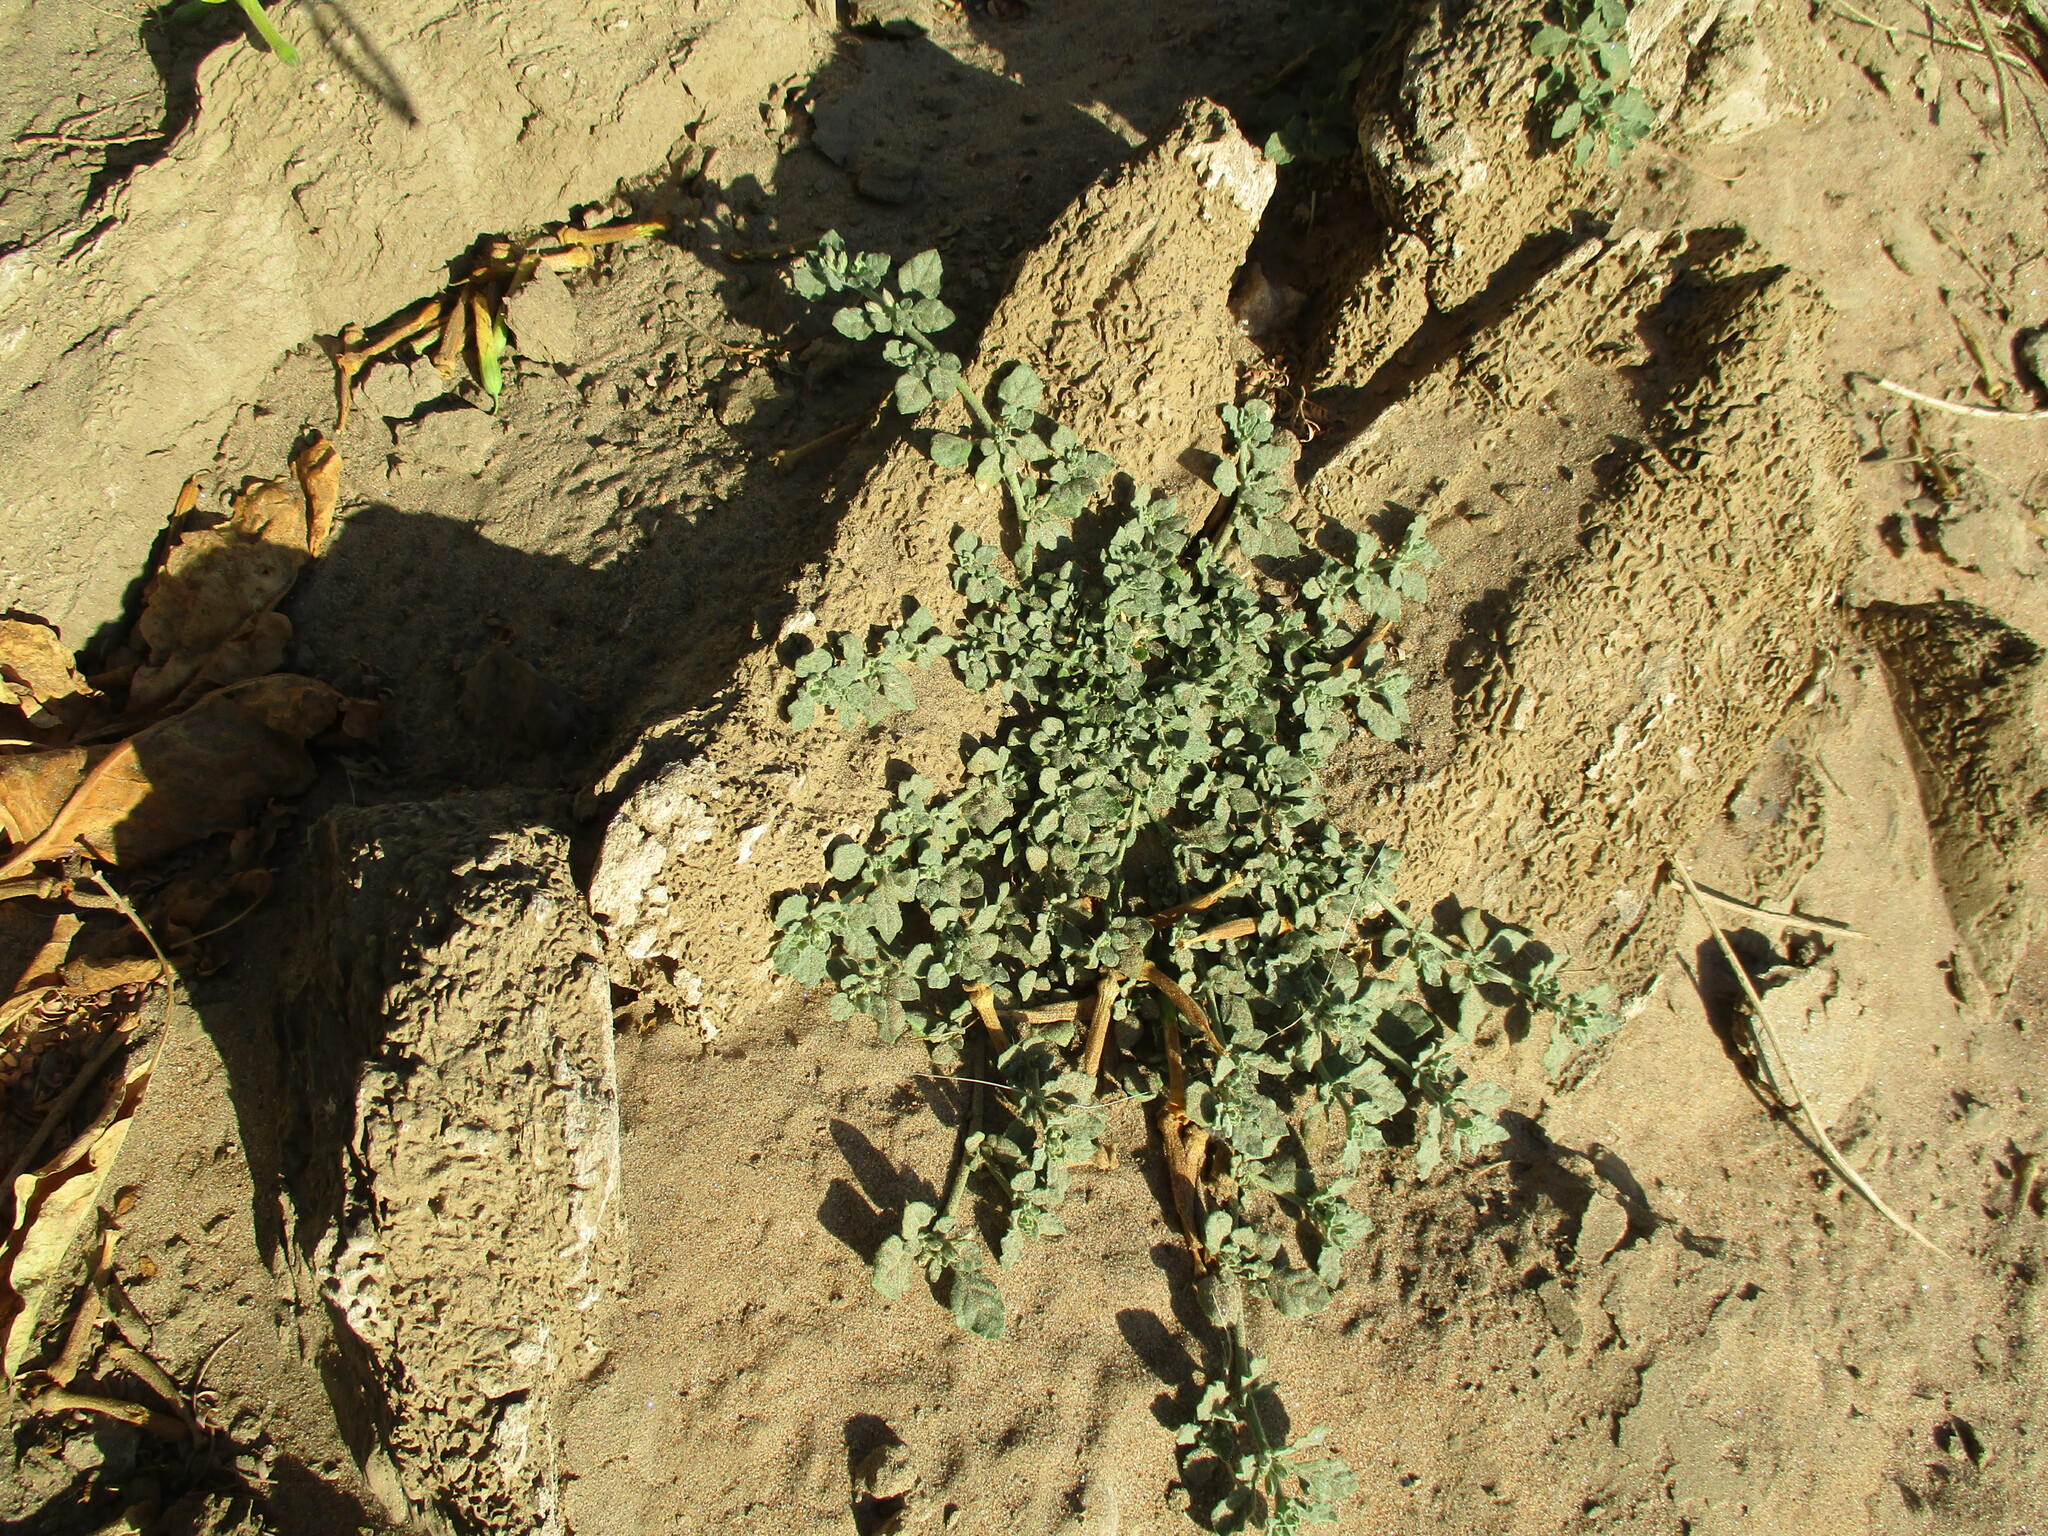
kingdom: Plantae
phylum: Tracheophyta
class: Magnoliopsida
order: Caryophyllales
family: Molluginaceae
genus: Glinus
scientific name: Glinus lotoides
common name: Lotus sweetjuice
